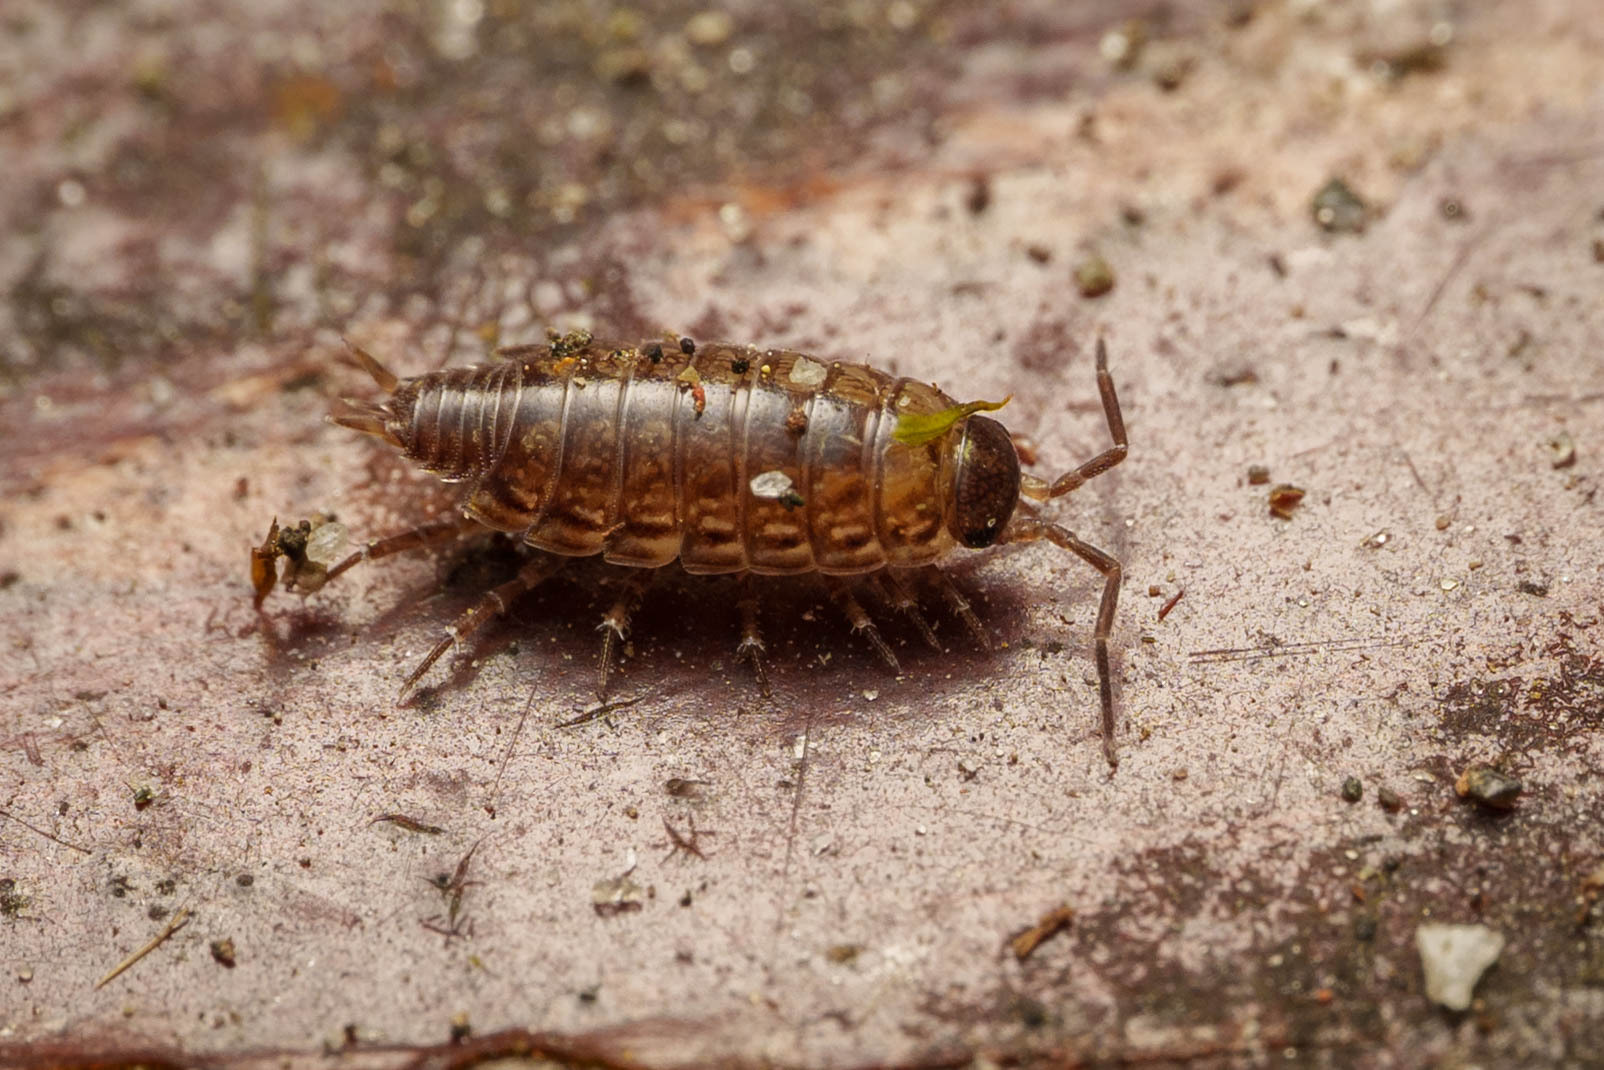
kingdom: Animalia
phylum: Arthropoda
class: Malacostraca
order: Isopoda
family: Philosciidae
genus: Philoscia
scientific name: Philoscia muscorum
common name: Common striped woodlouse
